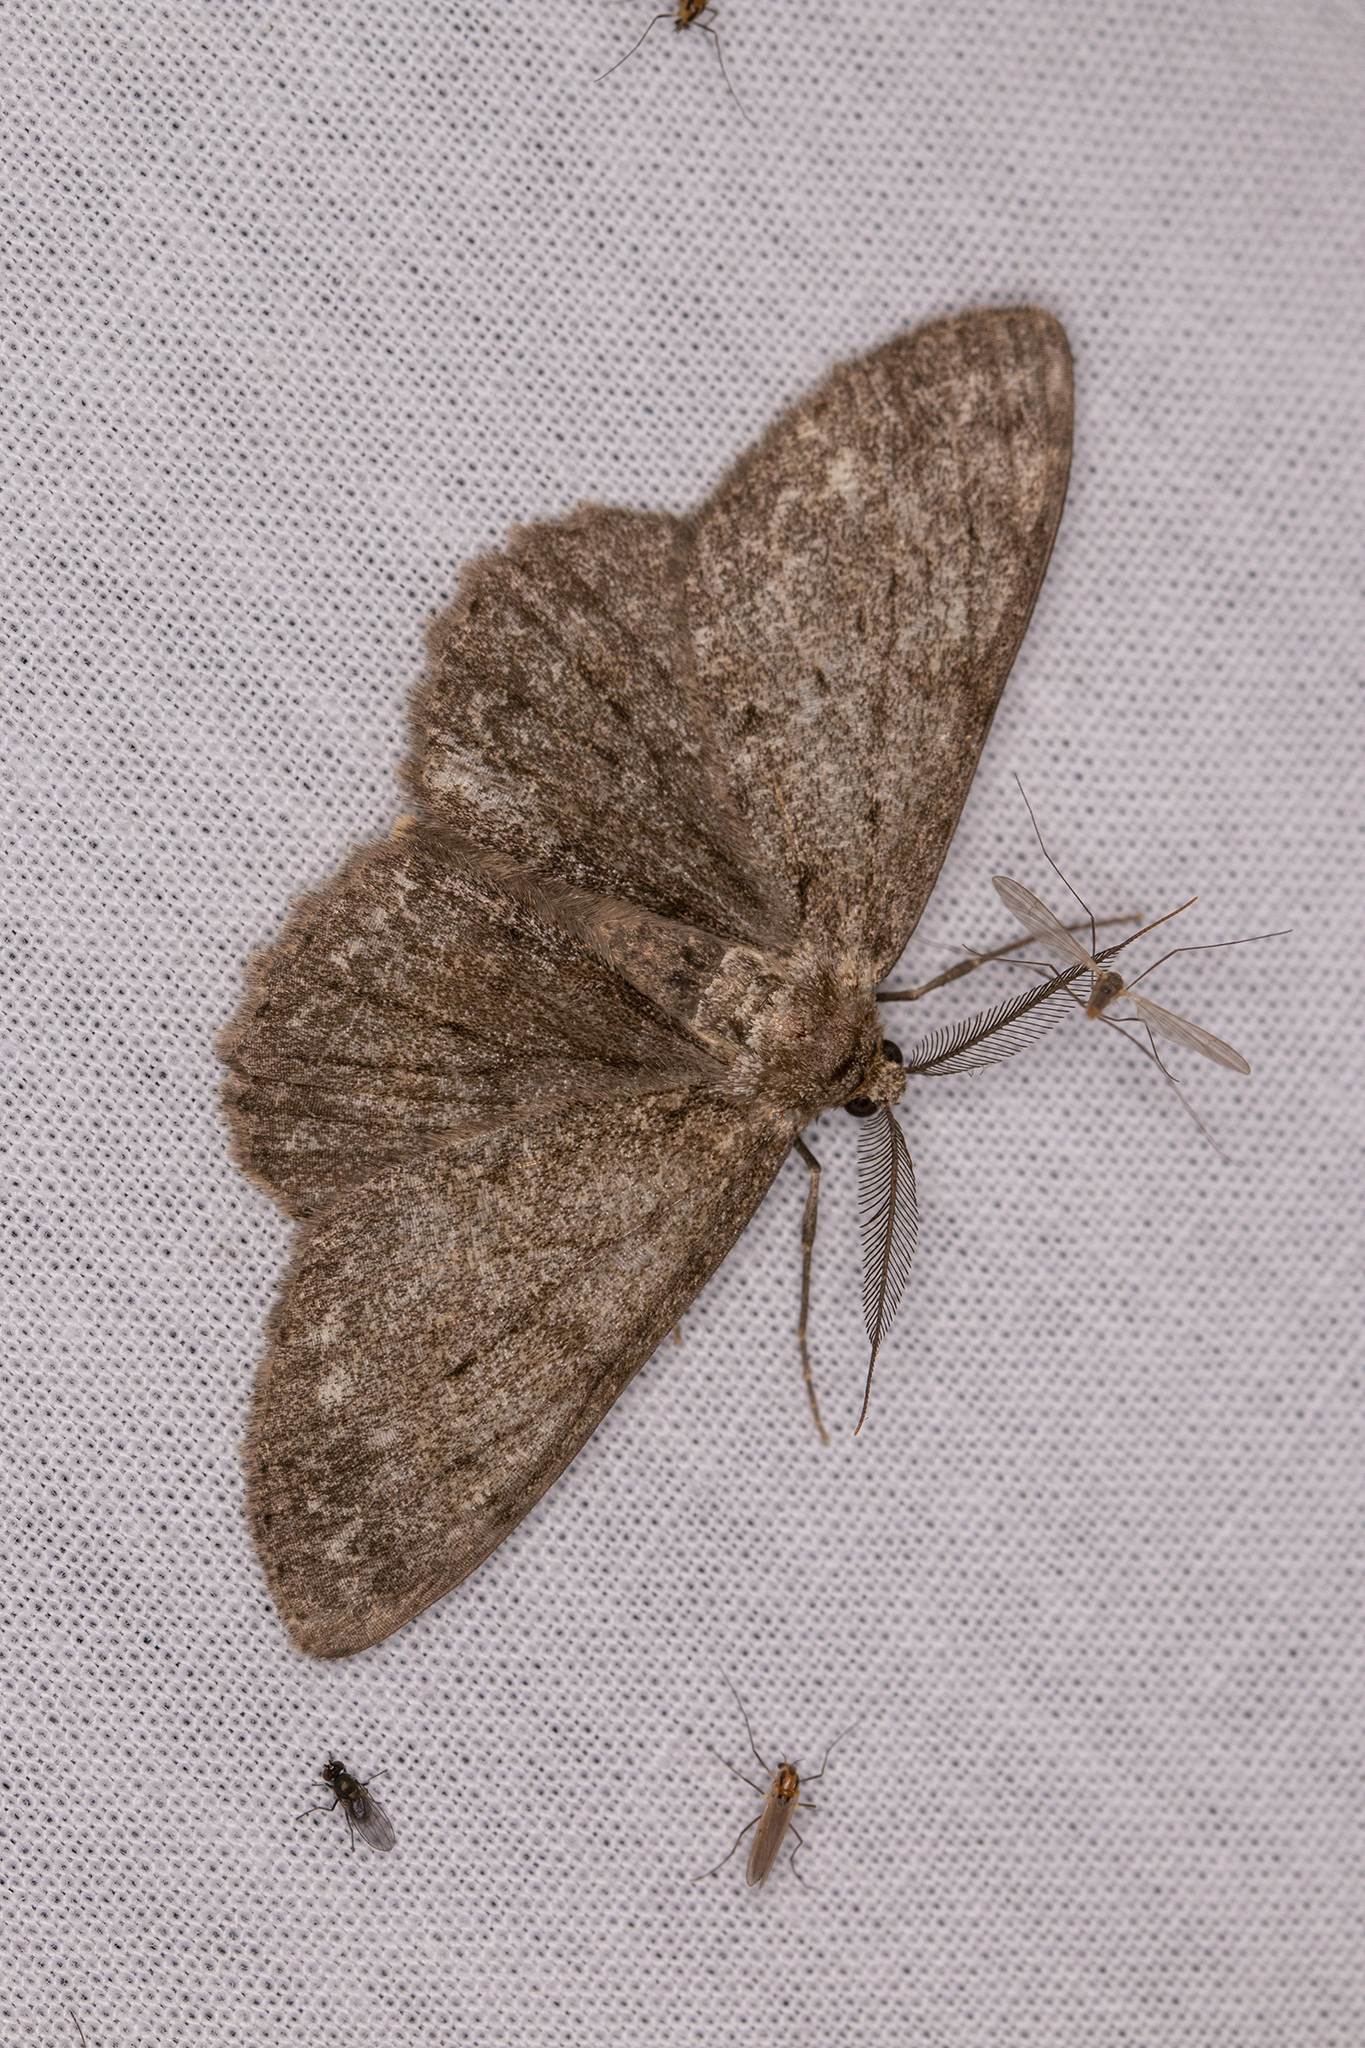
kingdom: Animalia
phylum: Arthropoda
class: Insecta
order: Lepidoptera
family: Geometridae
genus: Hypomecis
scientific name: Hypomecis punctinalis
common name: Pale oak beauty
